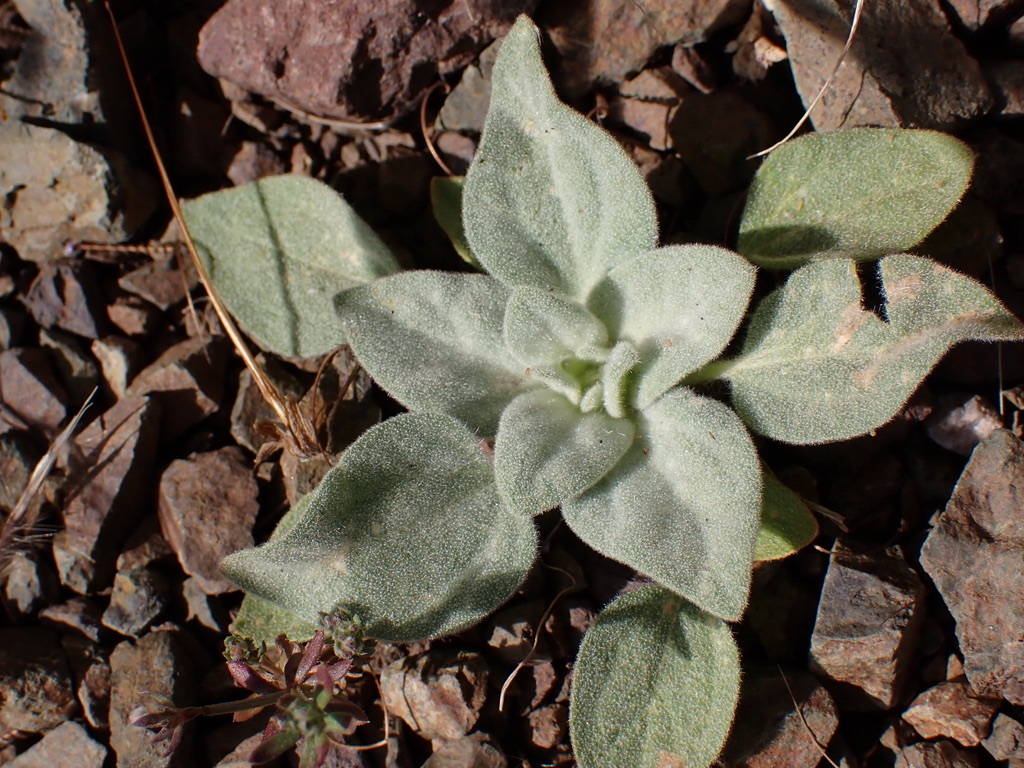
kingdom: Plantae
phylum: Tracheophyta
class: Magnoliopsida
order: Malpighiales
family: Euphorbiaceae
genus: Croton
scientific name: Croton setiger
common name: Dove weed
